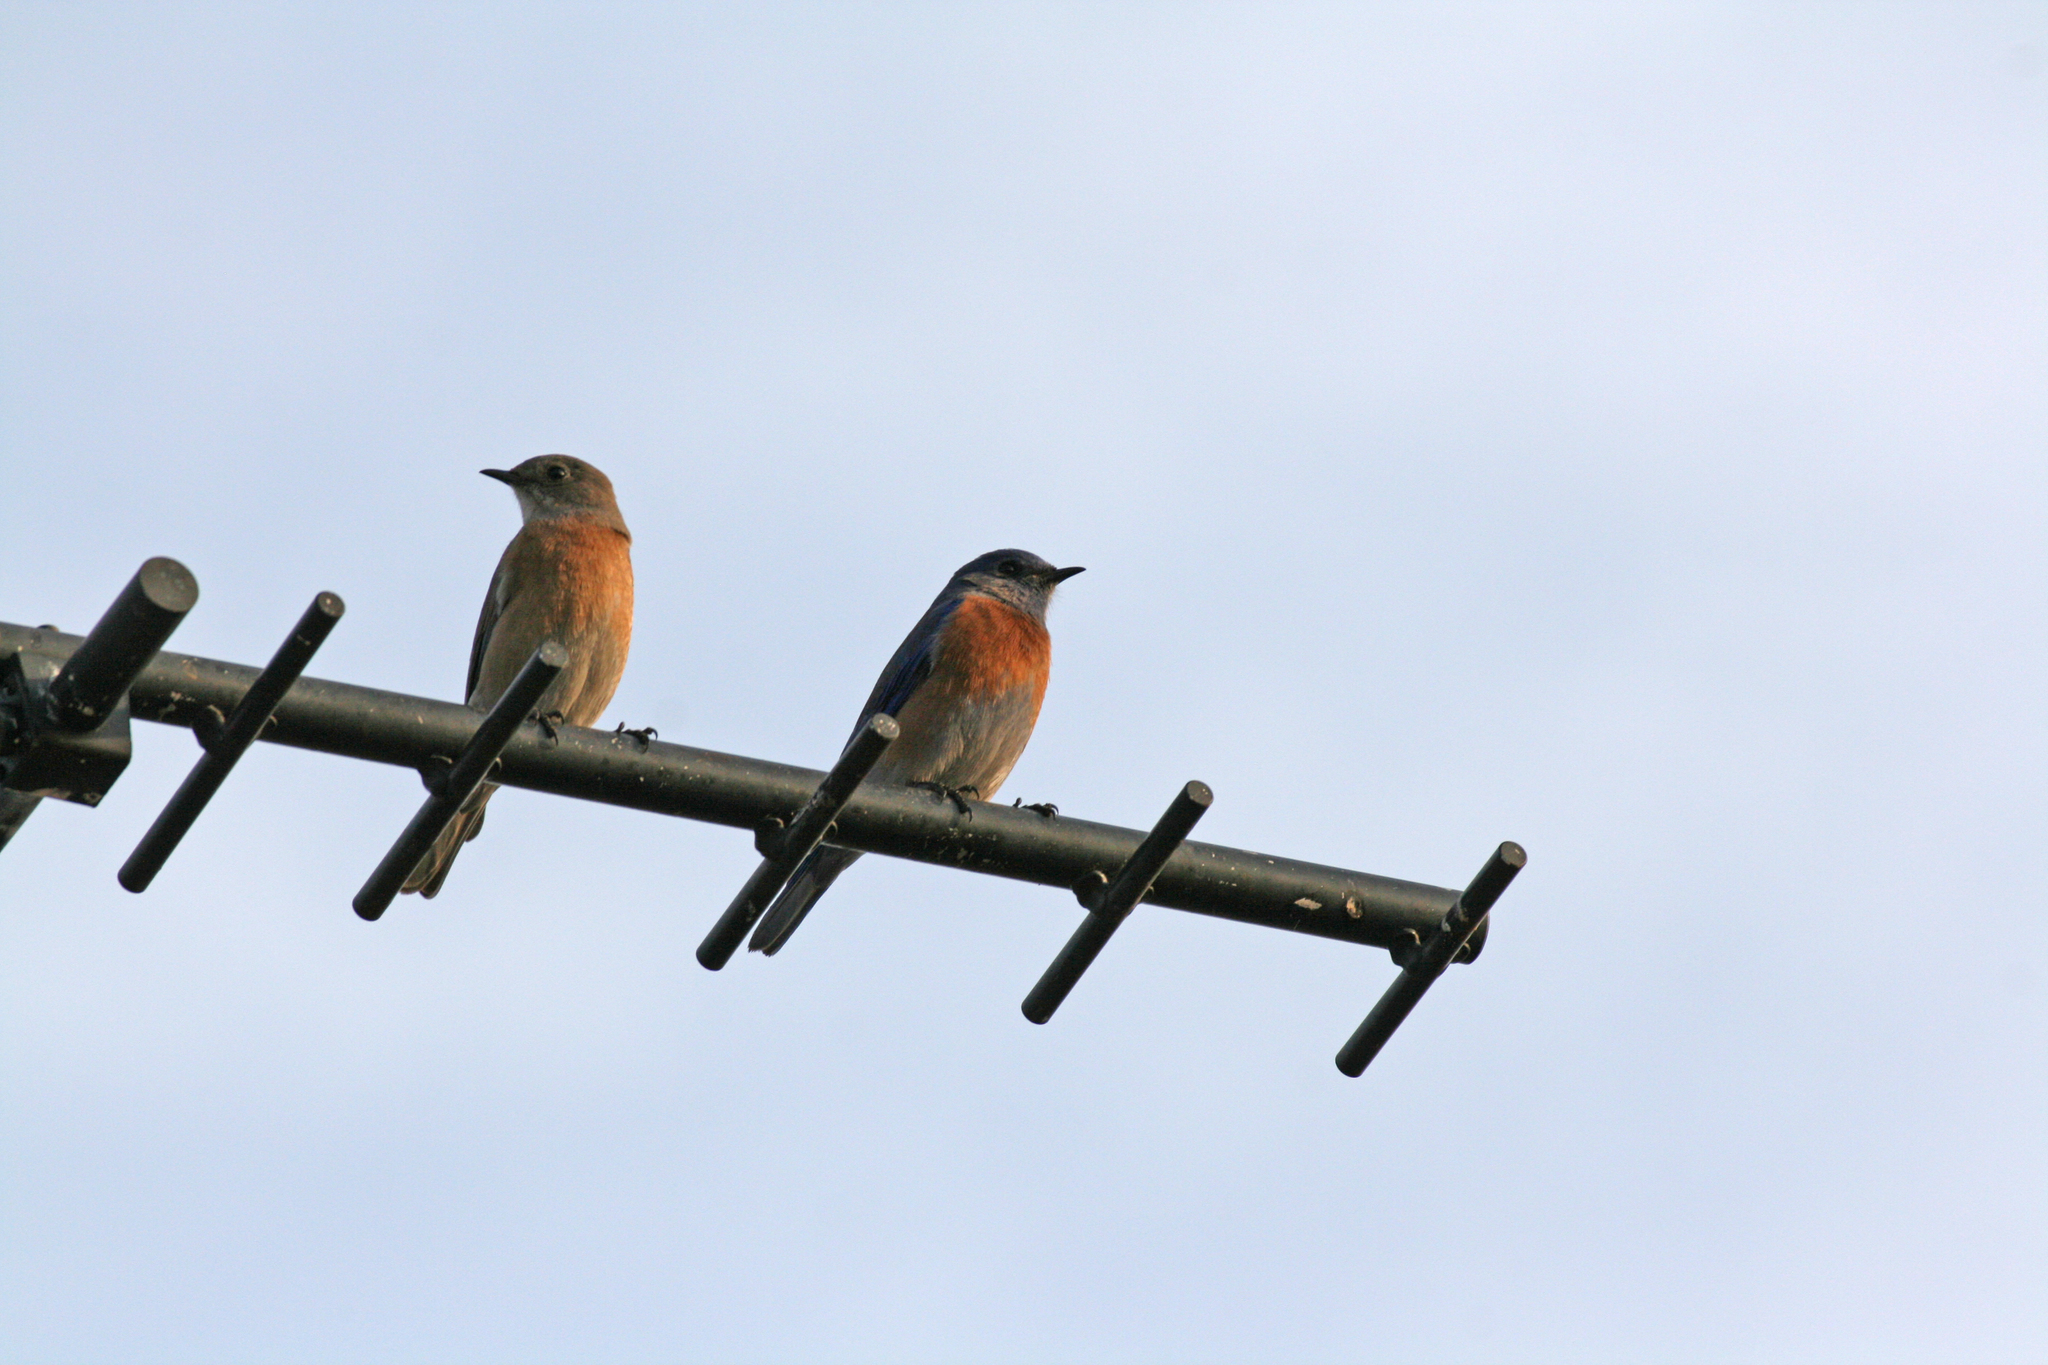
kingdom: Animalia
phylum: Chordata
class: Aves
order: Passeriformes
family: Turdidae
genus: Sialia
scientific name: Sialia mexicana
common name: Western bluebird
